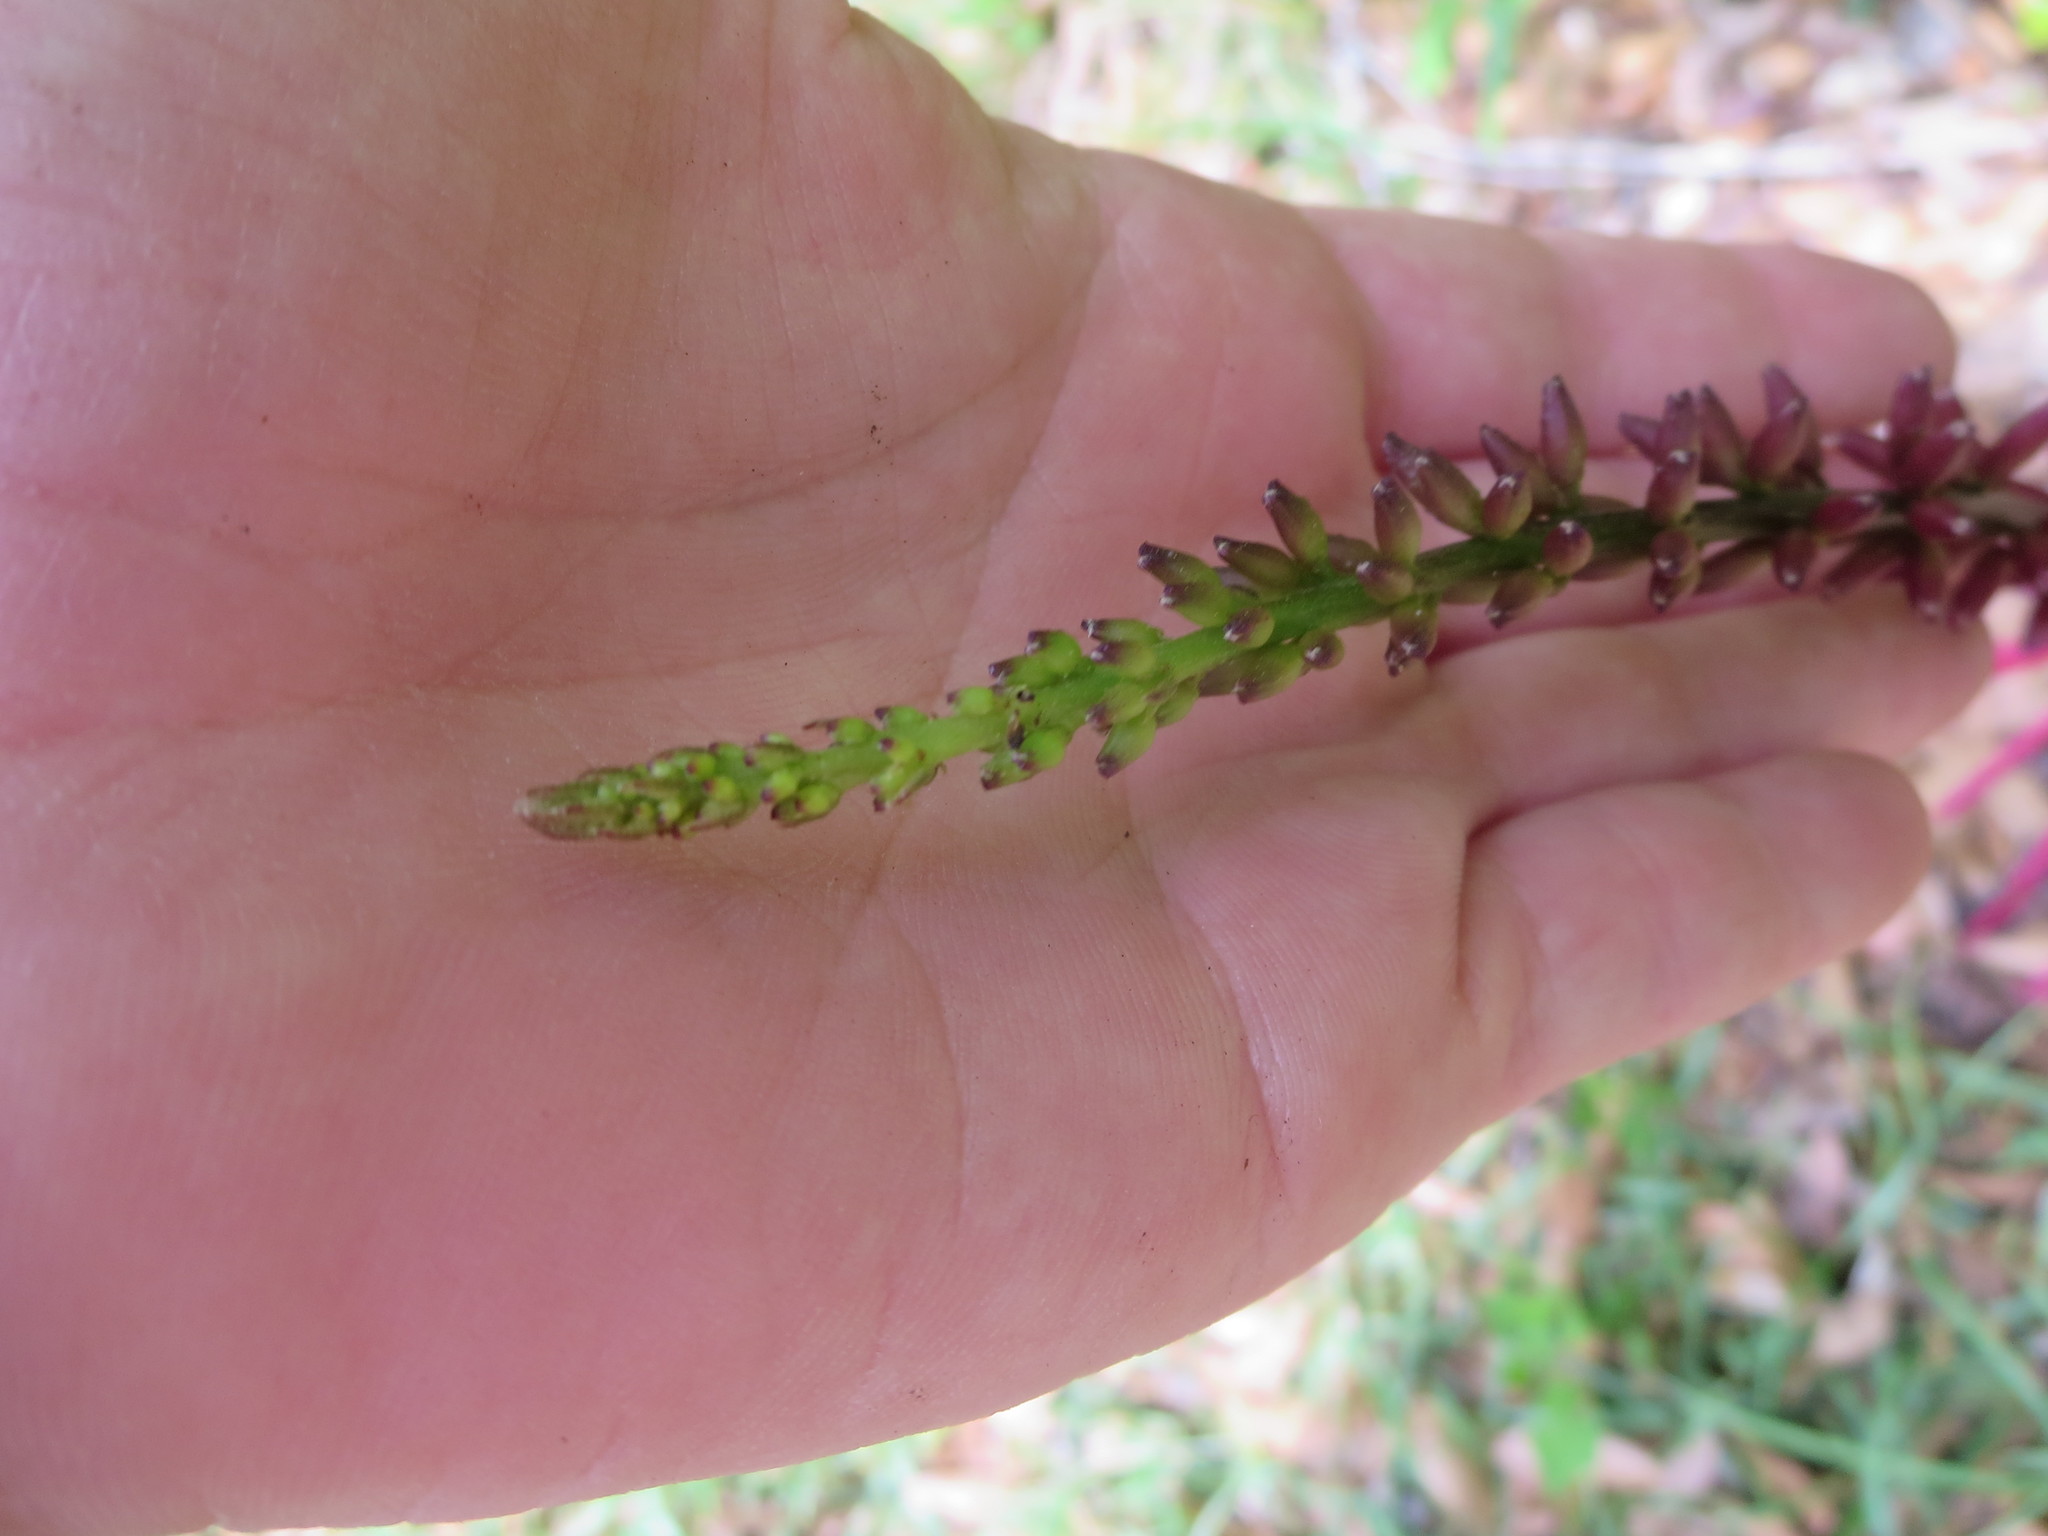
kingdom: Plantae
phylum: Tracheophyta
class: Magnoliopsida
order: Fabales
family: Fabaceae
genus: Erythrina
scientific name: Erythrina herbacea
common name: Coral-bean
